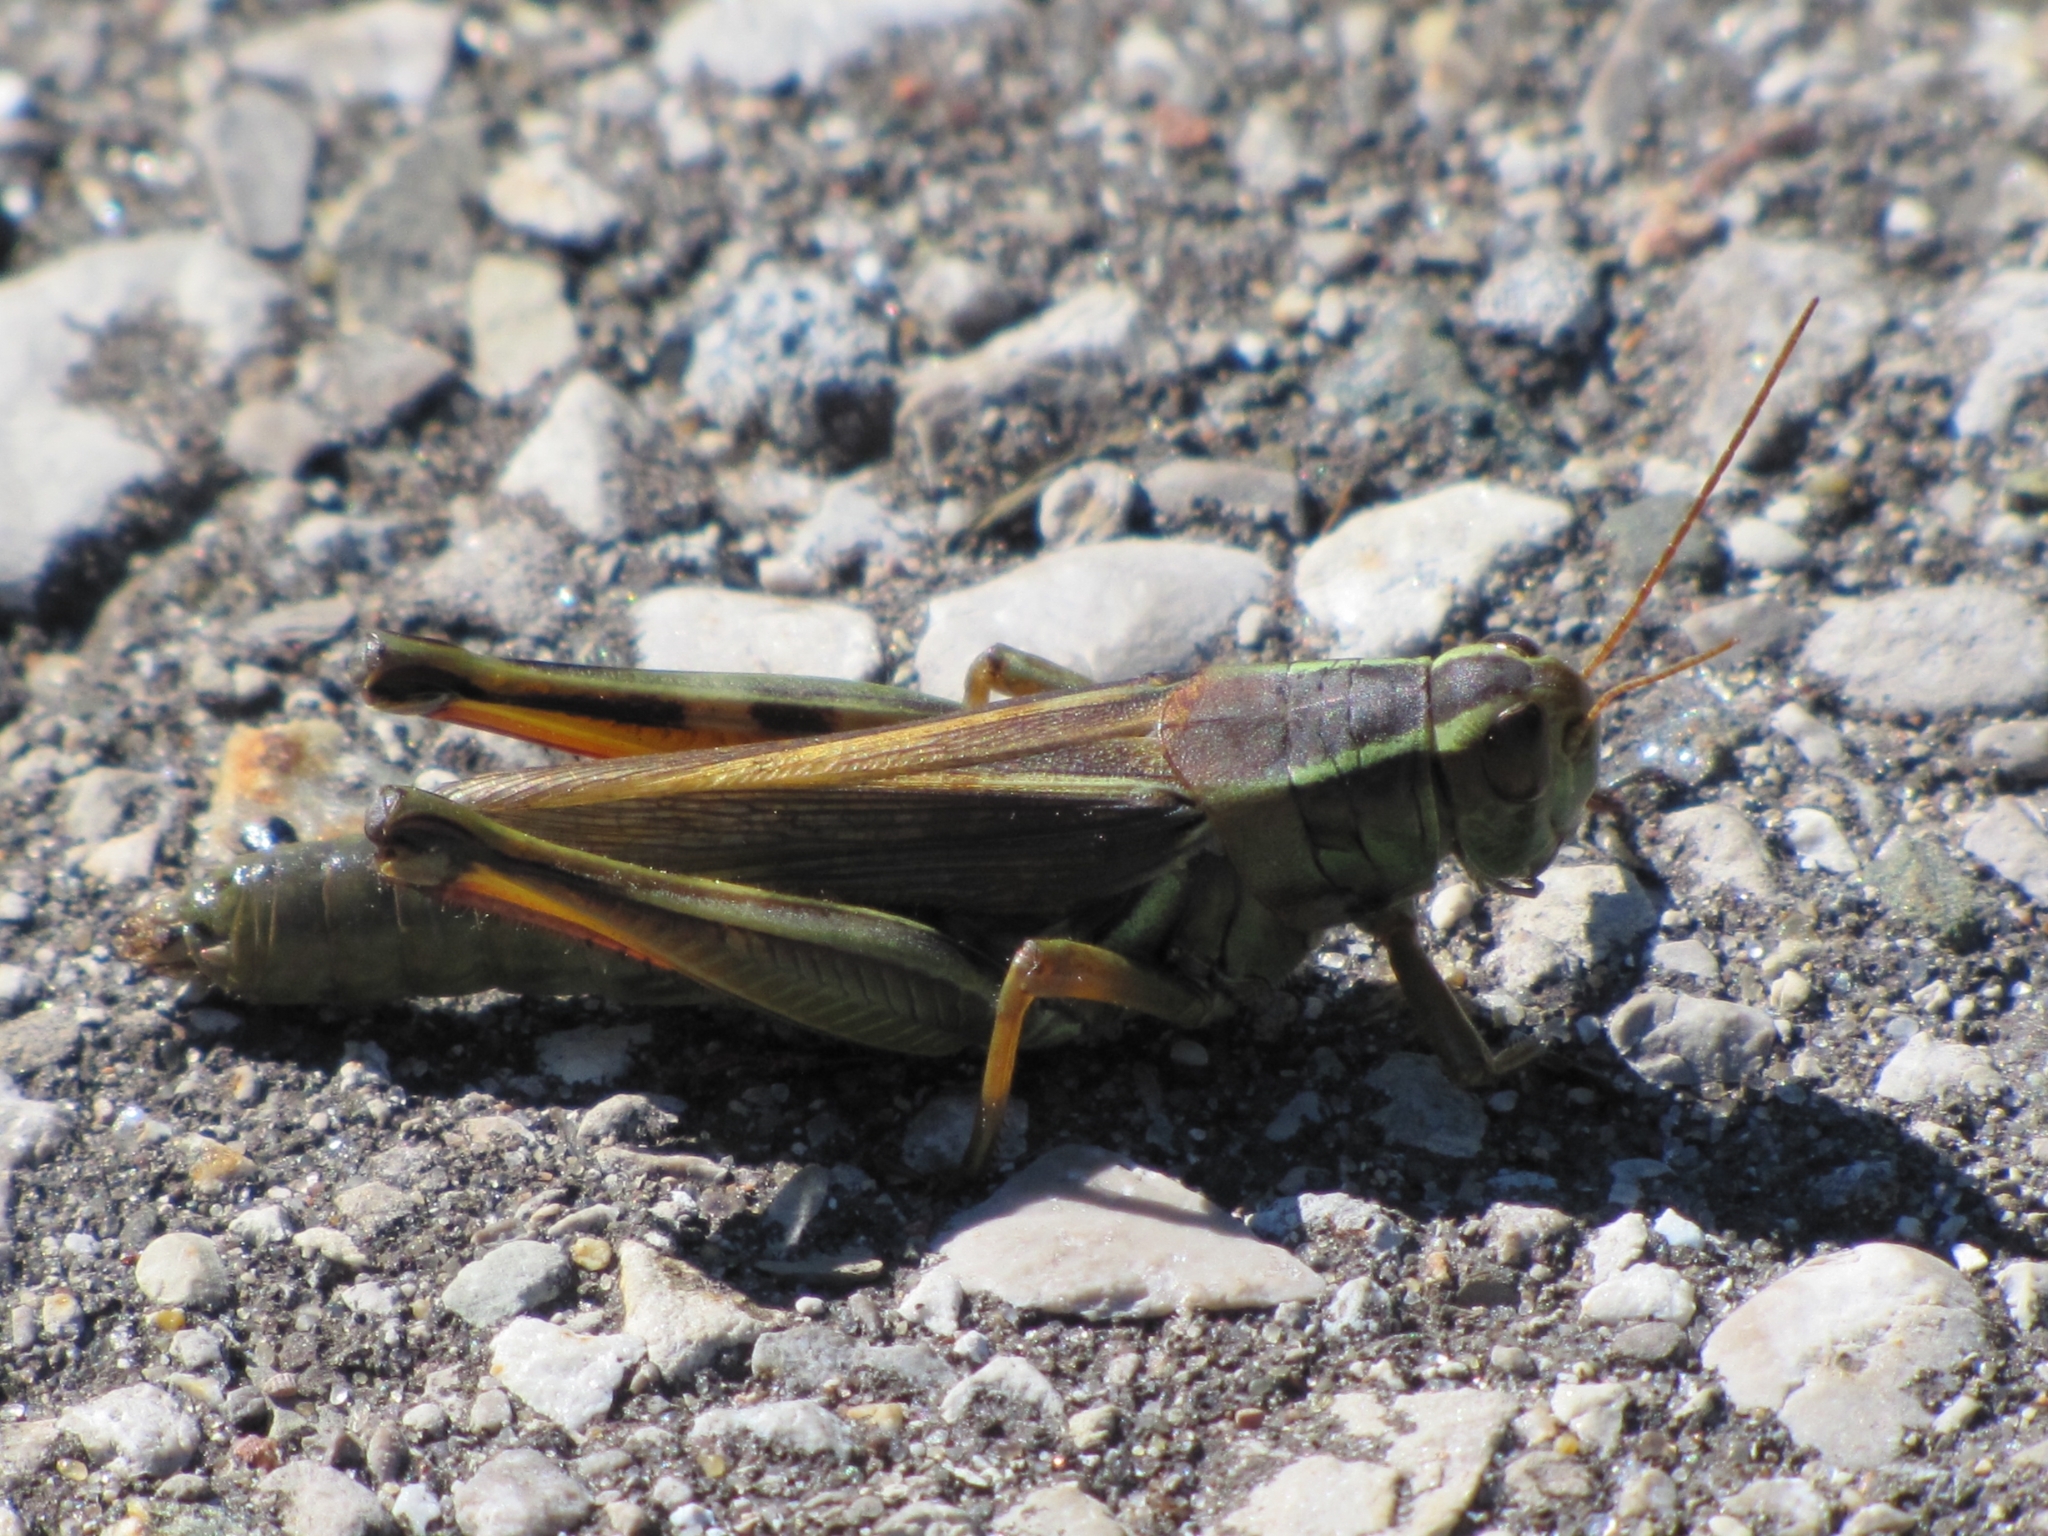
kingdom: Animalia
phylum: Arthropoda
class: Insecta
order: Orthoptera
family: Acrididae
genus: Melanoplus
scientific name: Melanoplus bivittatus
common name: Two-striped grasshopper
